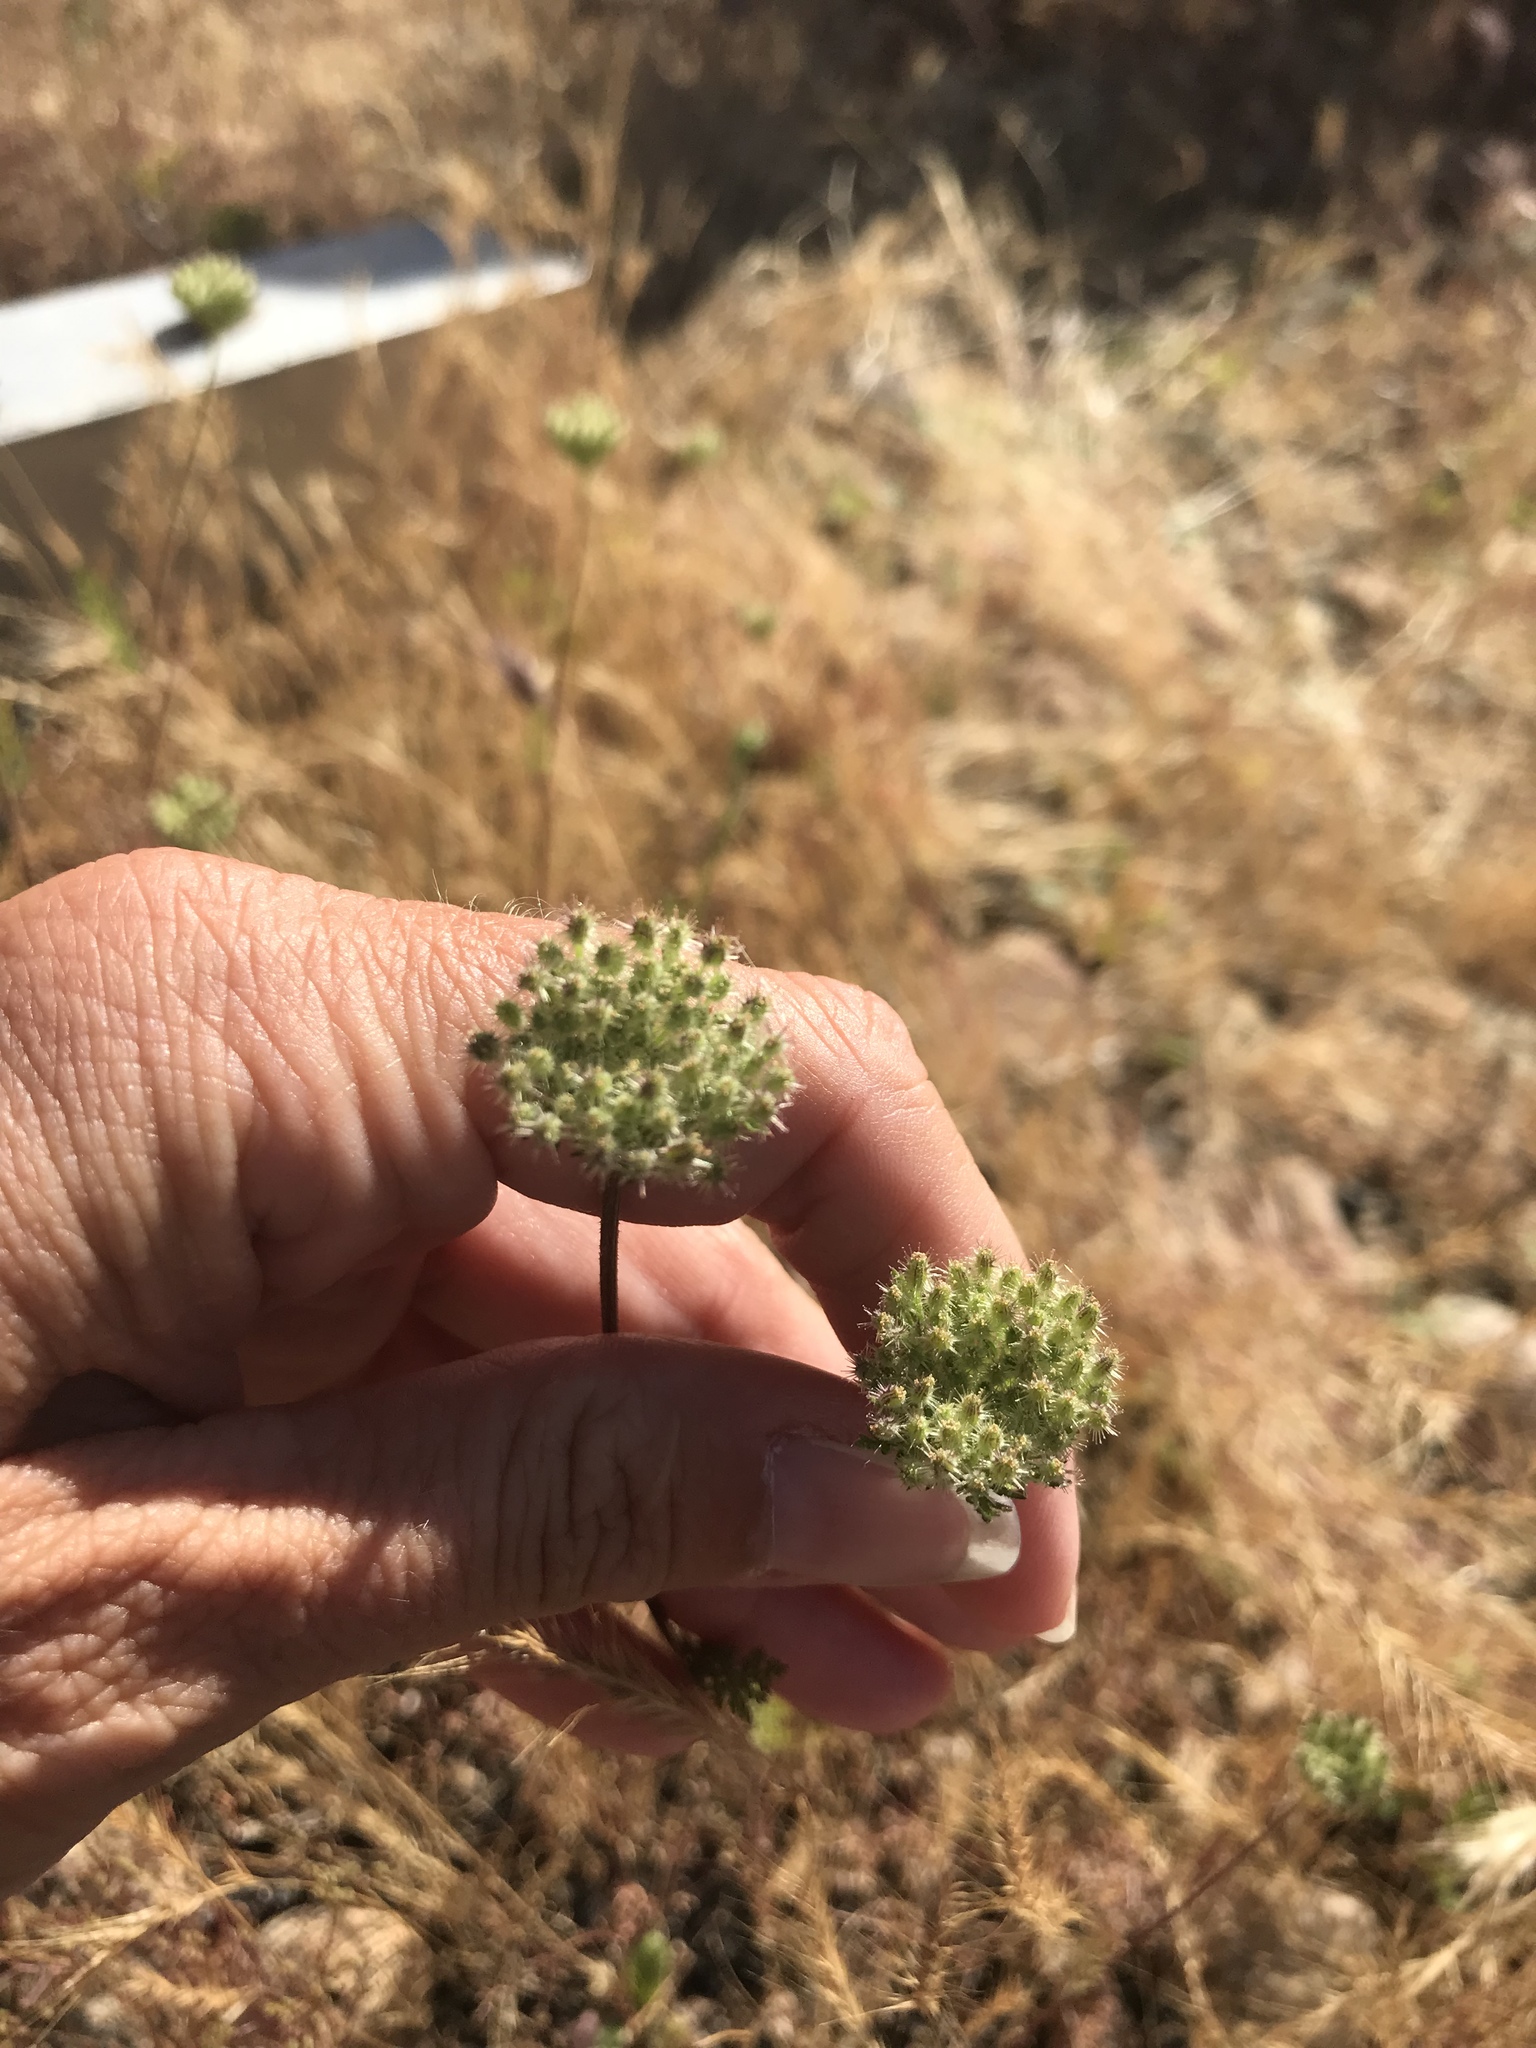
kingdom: Plantae
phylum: Tracheophyta
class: Magnoliopsida
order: Apiales
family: Apiaceae
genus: Daucus
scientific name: Daucus pusillus
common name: Southwest wild carrot
